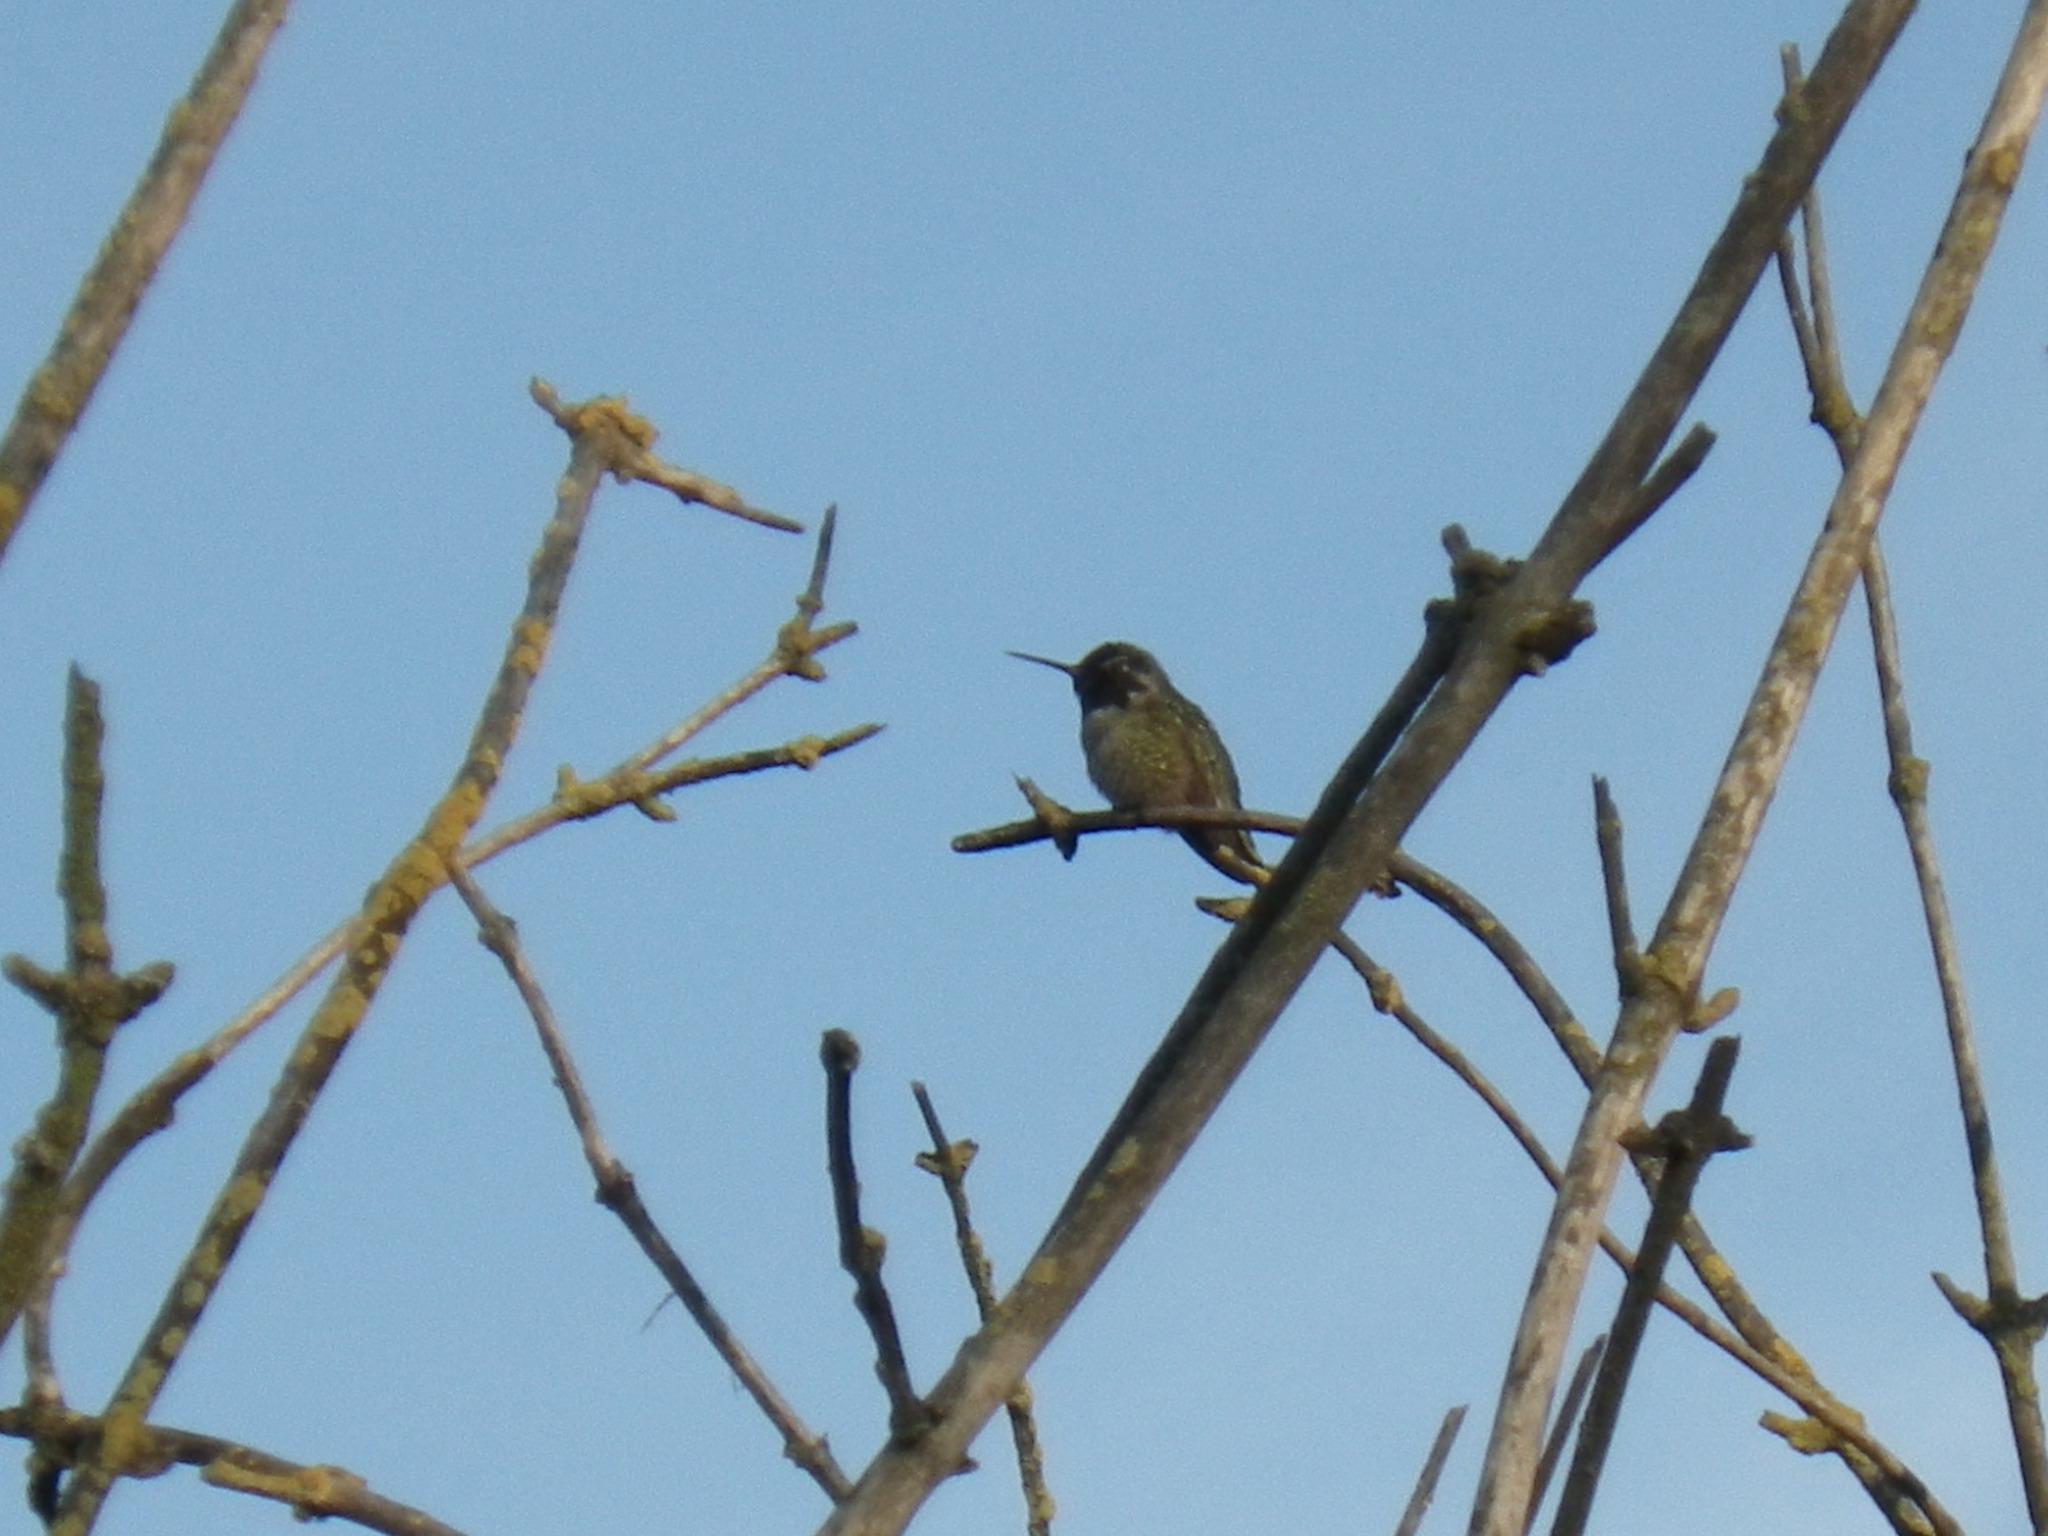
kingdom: Animalia
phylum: Chordata
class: Aves
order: Apodiformes
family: Trochilidae
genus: Calypte
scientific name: Calypte anna
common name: Anna's hummingbird
